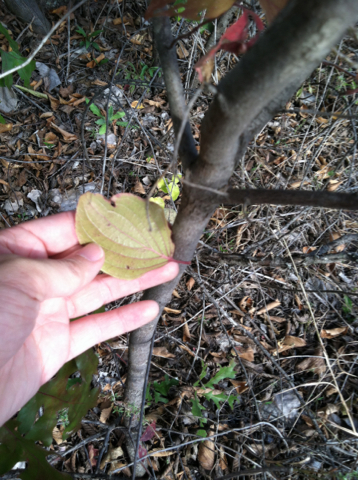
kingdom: Plantae
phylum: Tracheophyta
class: Magnoliopsida
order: Cornales
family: Cornaceae
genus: Cornus
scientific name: Cornus drummondii
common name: Rough-leaf dogwood
